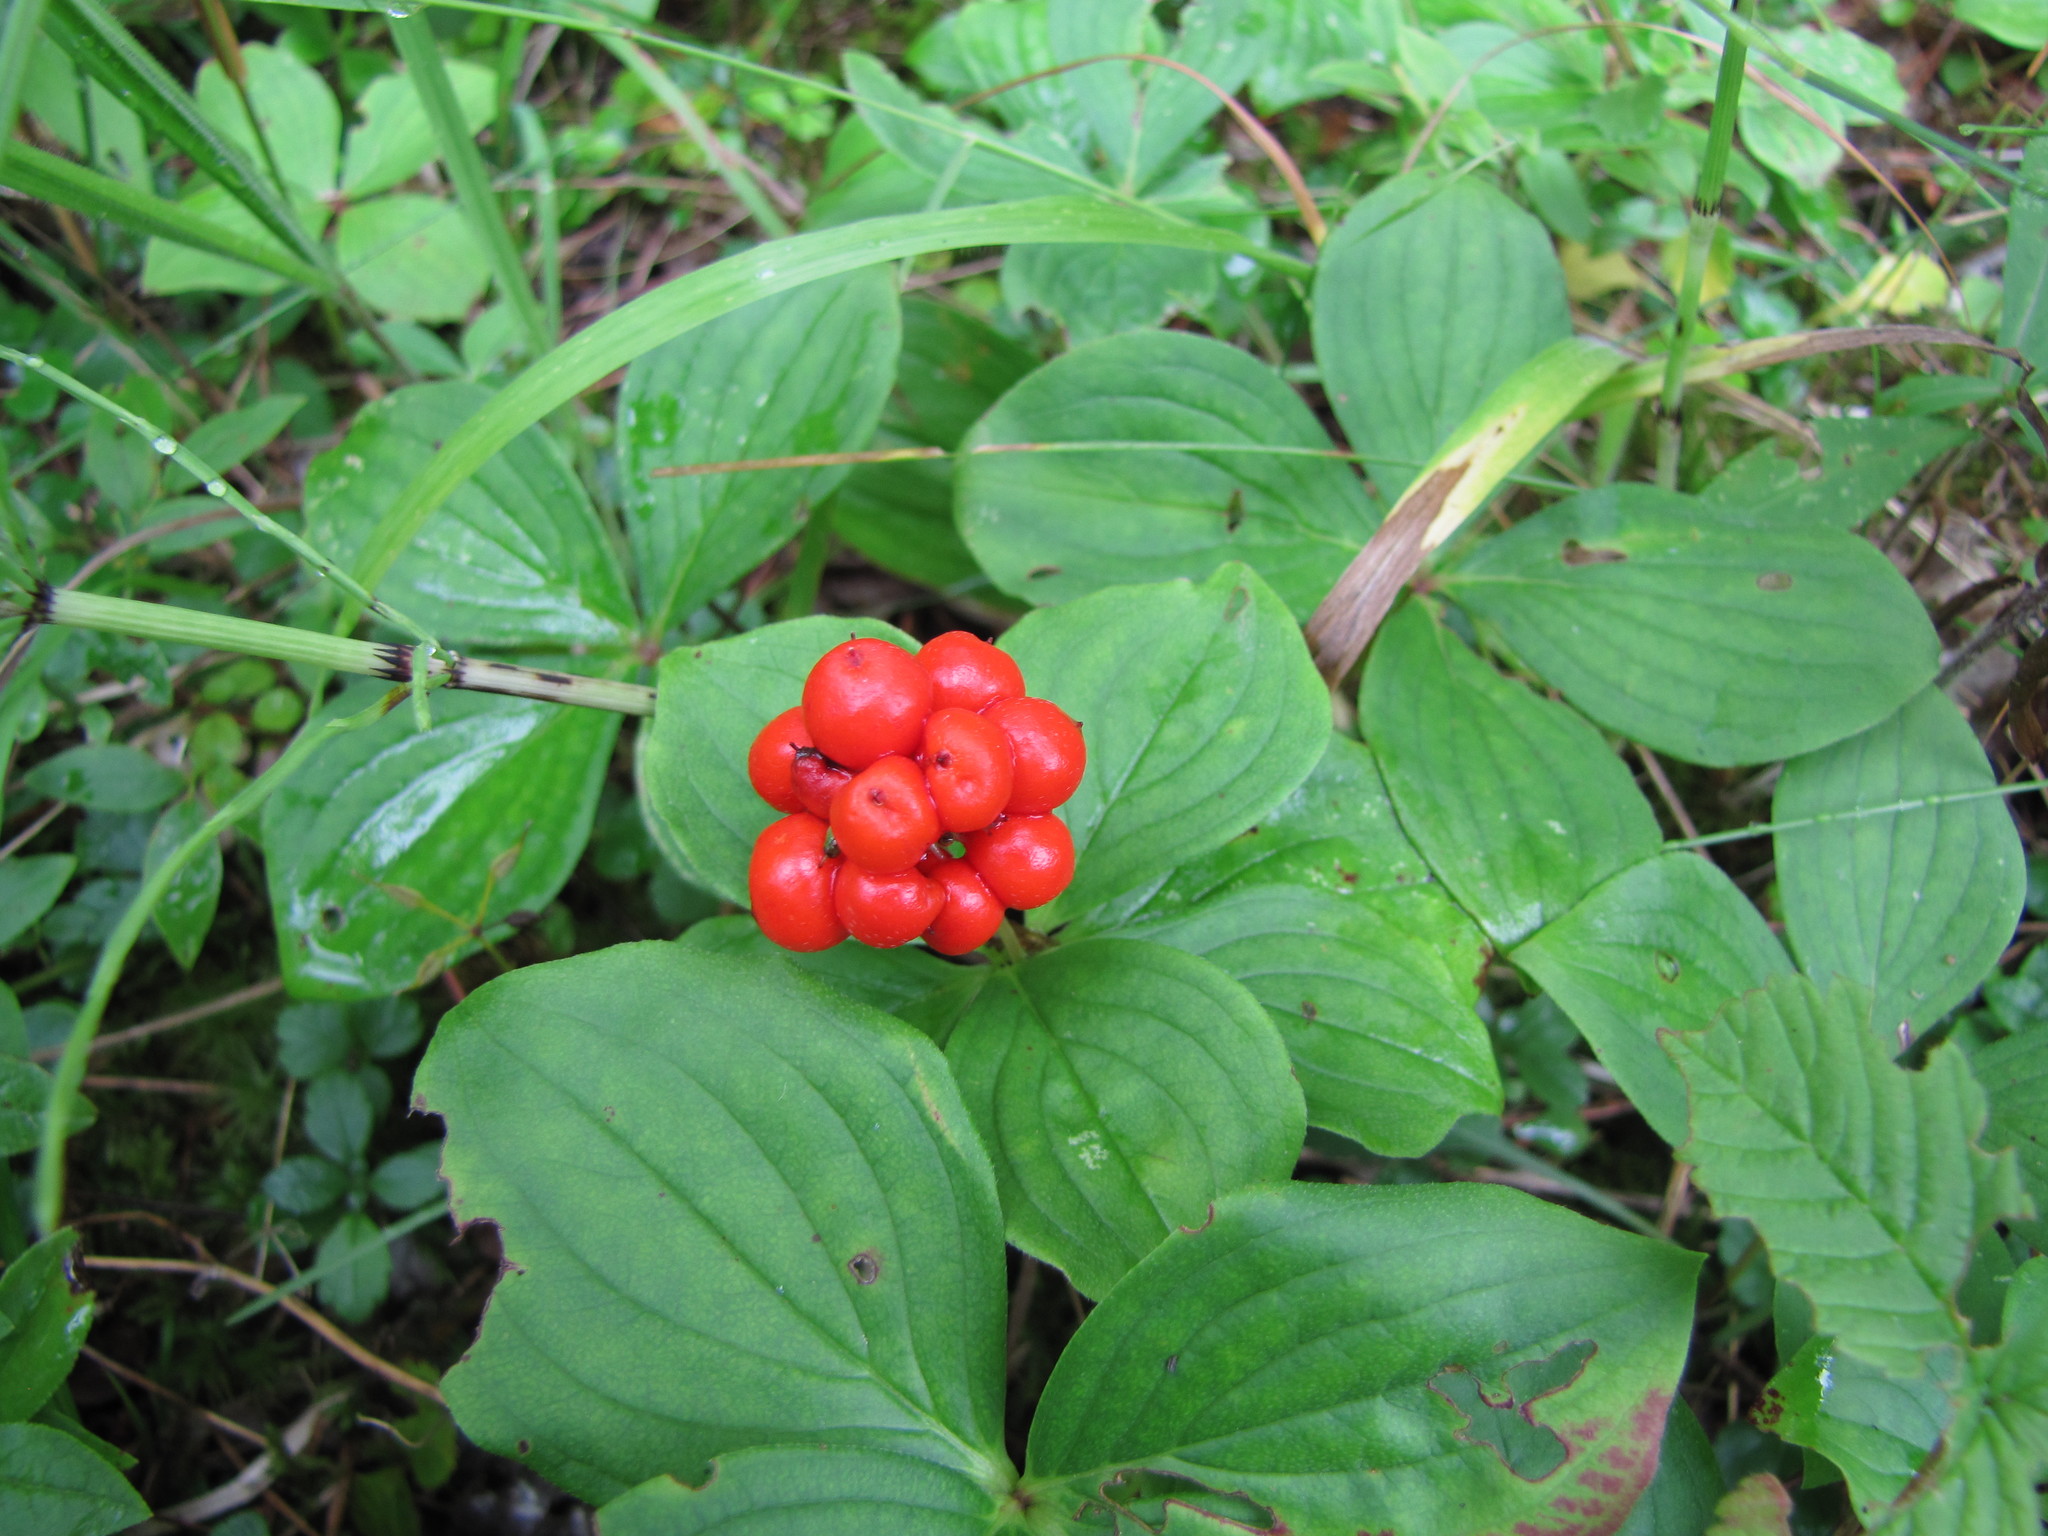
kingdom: Plantae
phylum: Tracheophyta
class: Magnoliopsida
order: Cornales
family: Cornaceae
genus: Cornus
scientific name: Cornus canadensis
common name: Creeping dogwood
